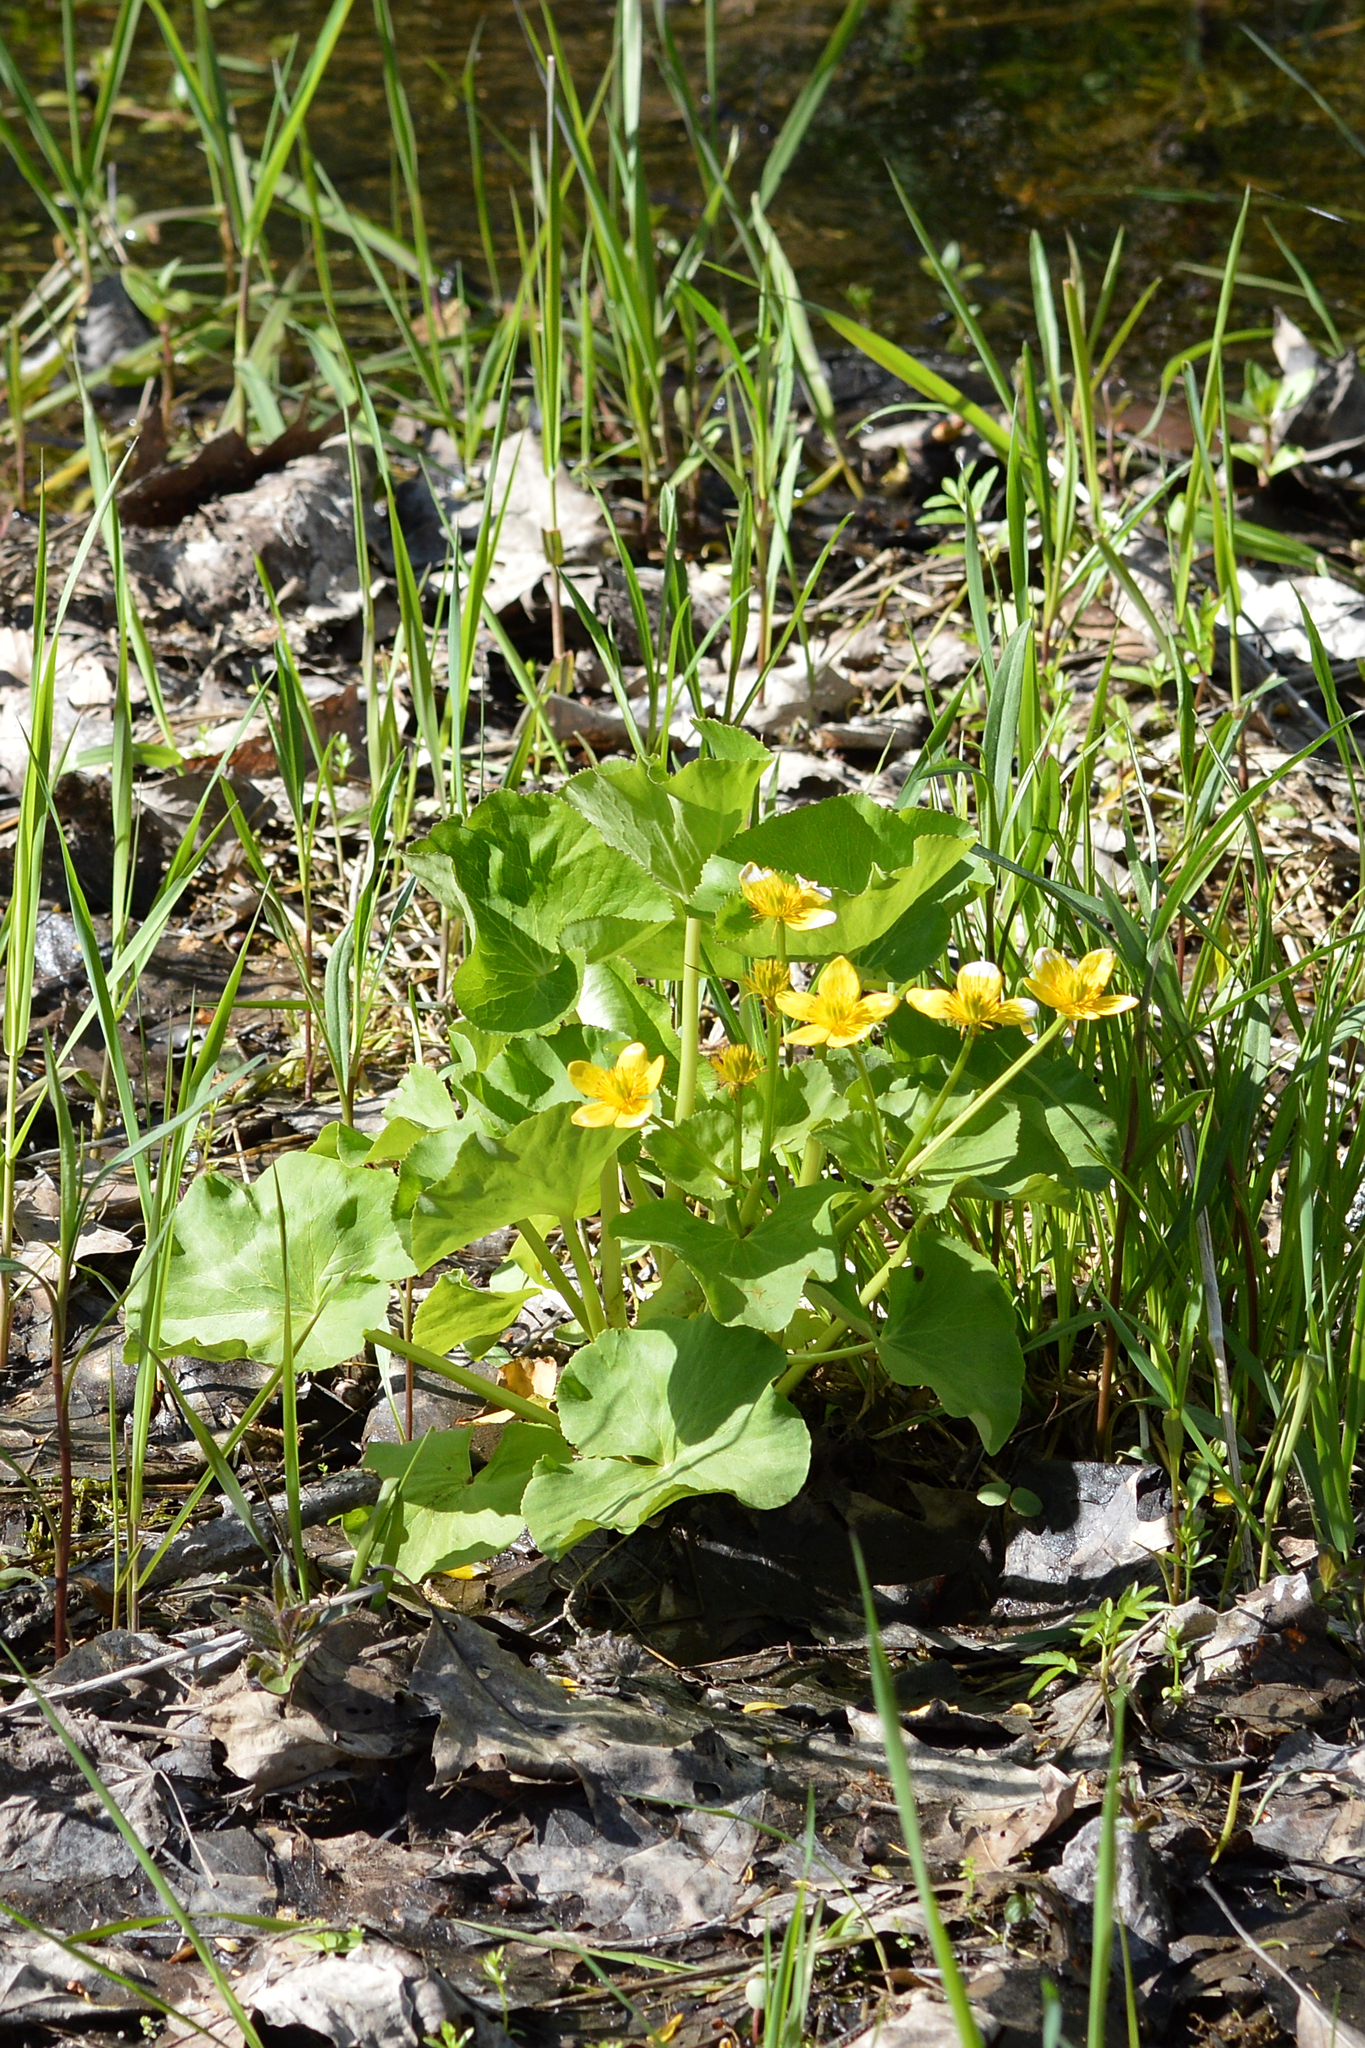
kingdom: Plantae
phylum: Tracheophyta
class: Magnoliopsida
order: Ranunculales
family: Ranunculaceae
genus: Caltha
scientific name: Caltha palustris
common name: Marsh marigold
